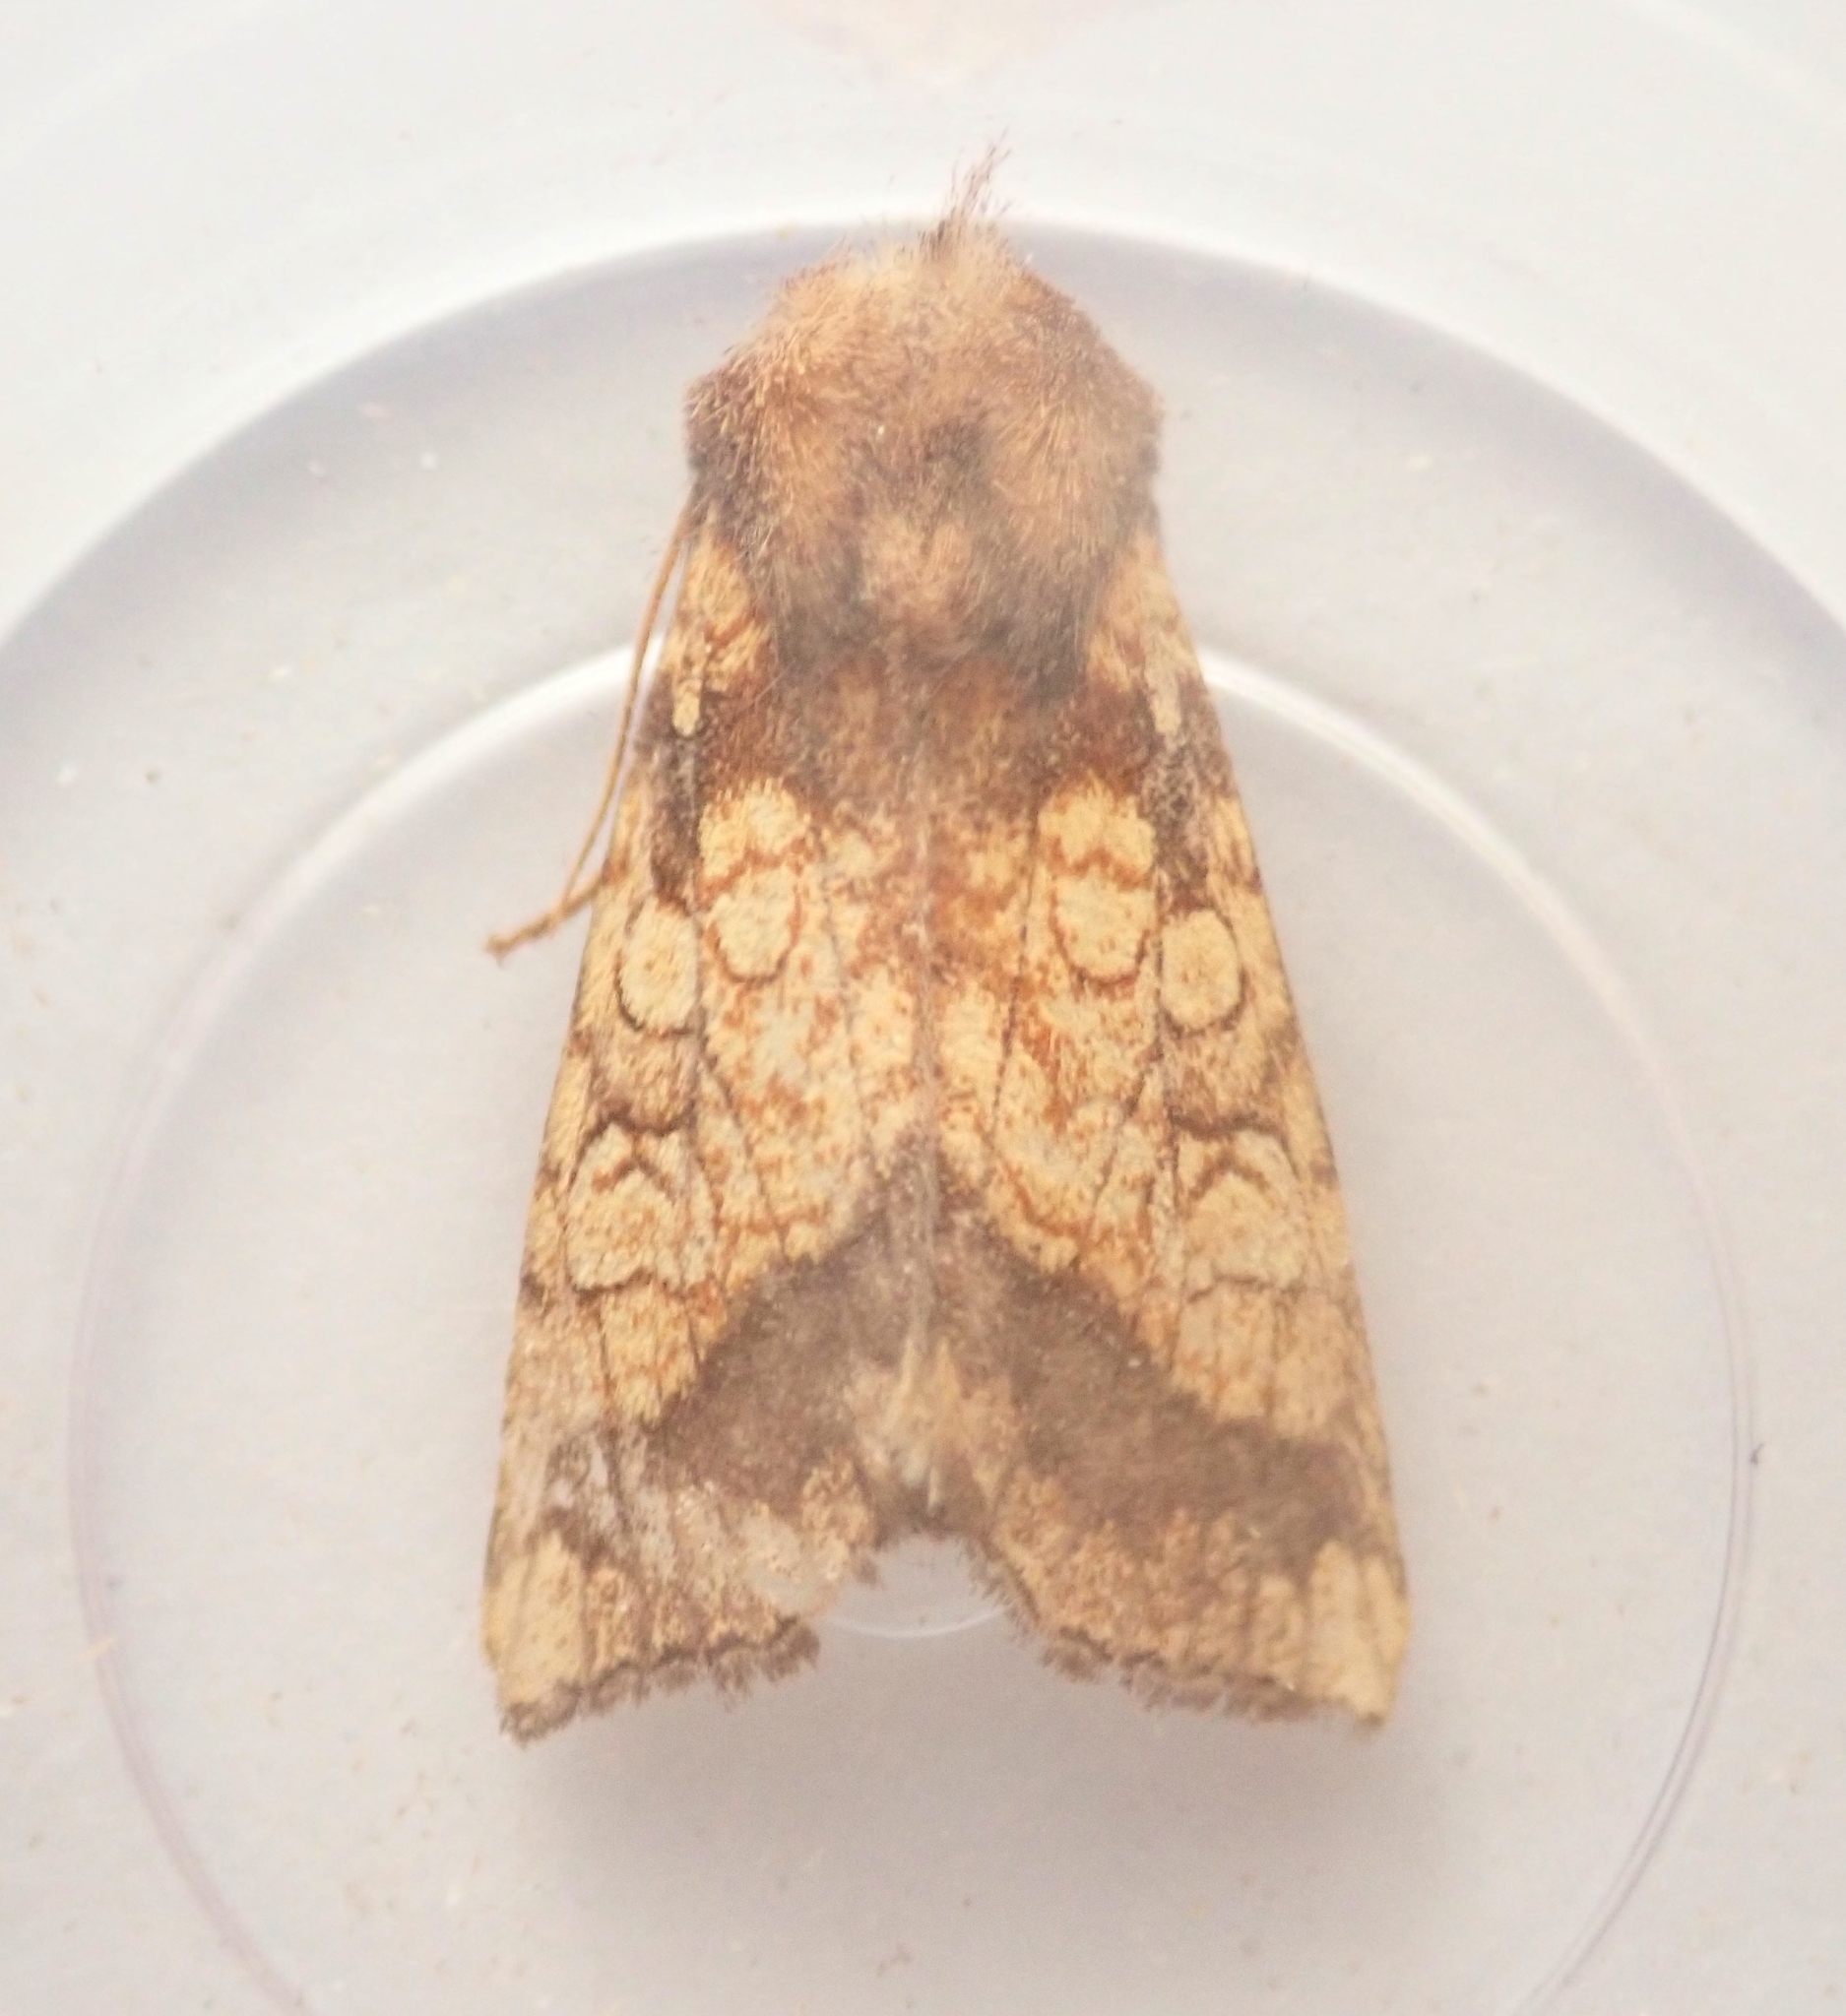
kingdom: Animalia
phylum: Arthropoda
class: Insecta
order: Lepidoptera
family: Noctuidae
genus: Gortyna
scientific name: Gortyna flavago
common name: Frosted orange
